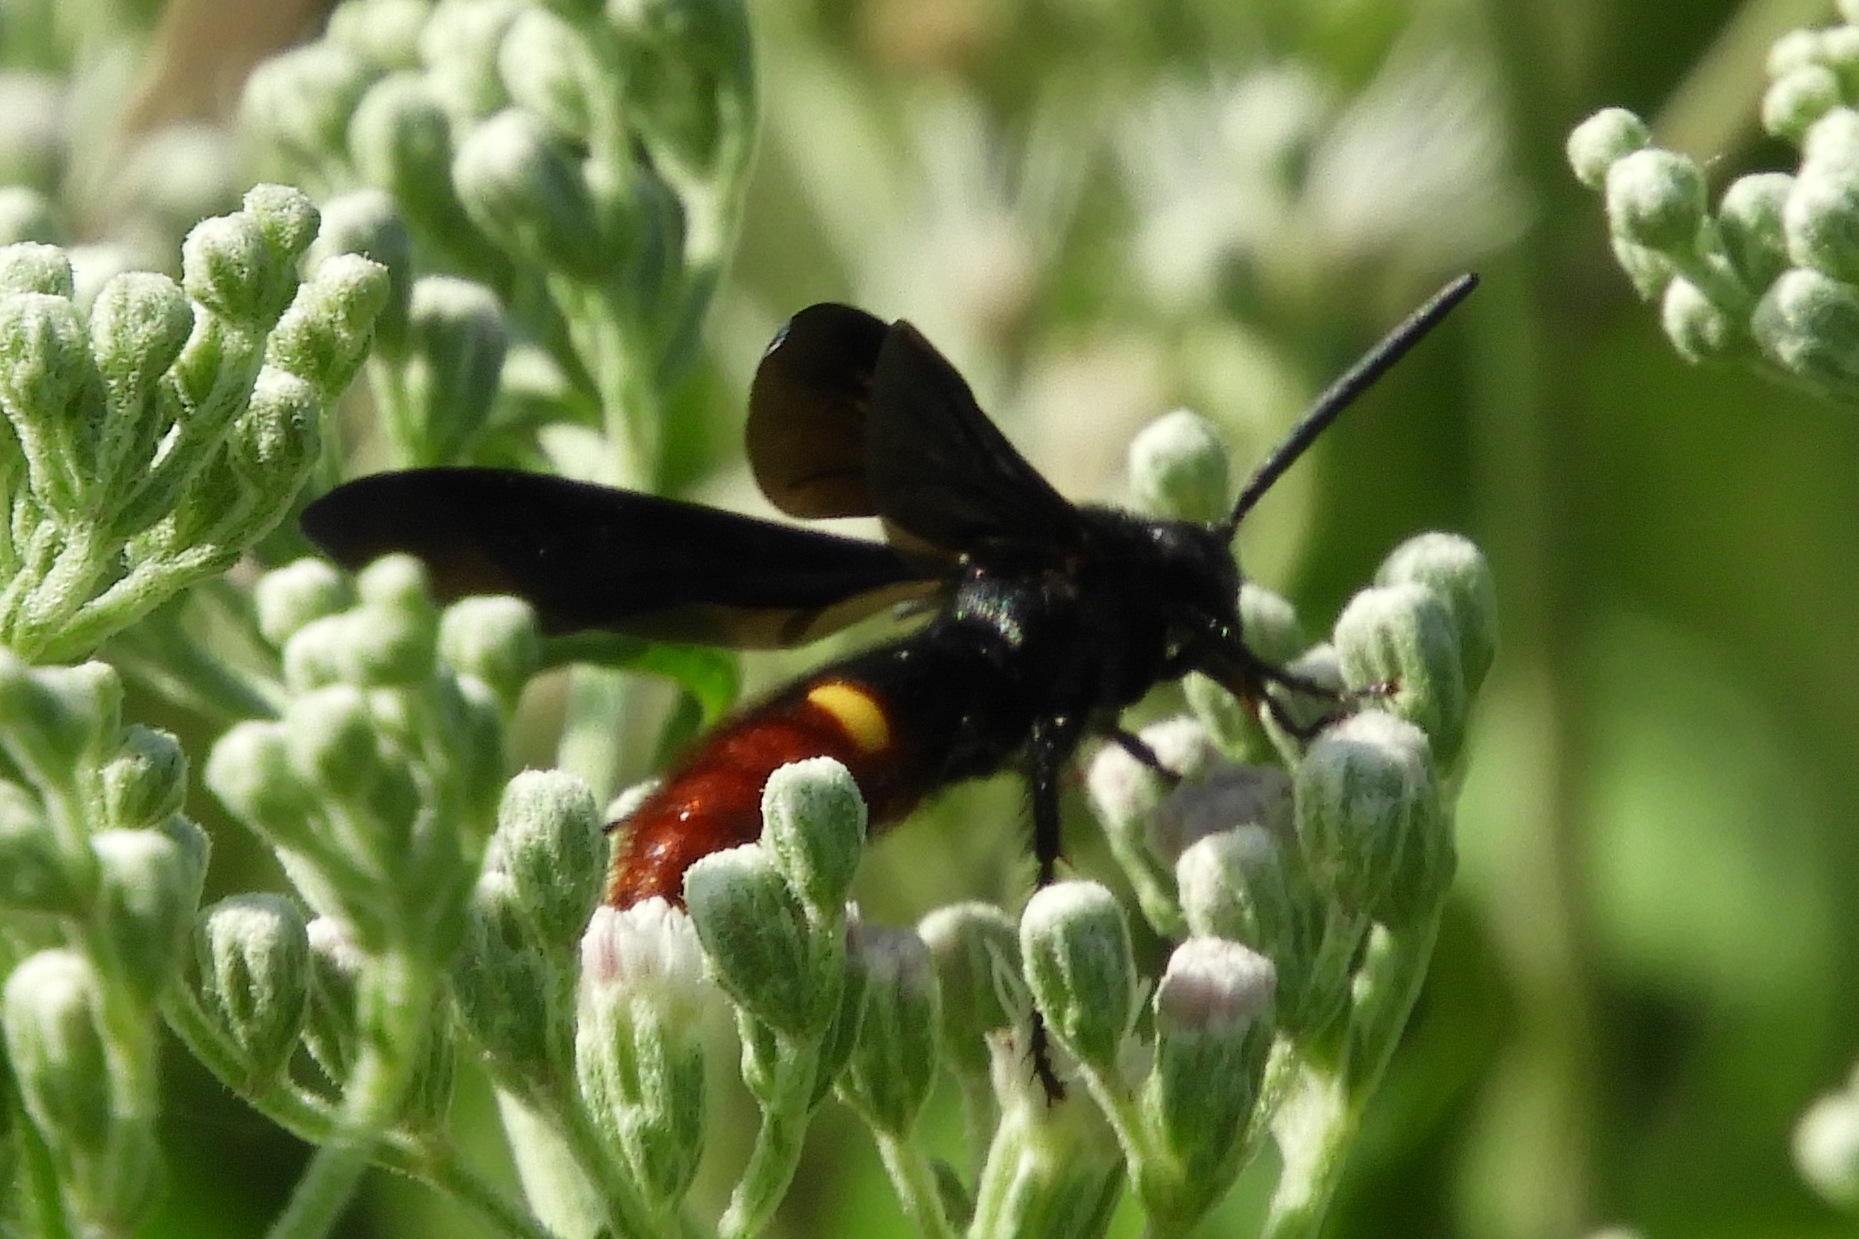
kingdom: Animalia
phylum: Arthropoda
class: Insecta
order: Hymenoptera
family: Scoliidae
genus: Scolia
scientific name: Scolia dubia
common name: Blue-winged scoliid wasp
